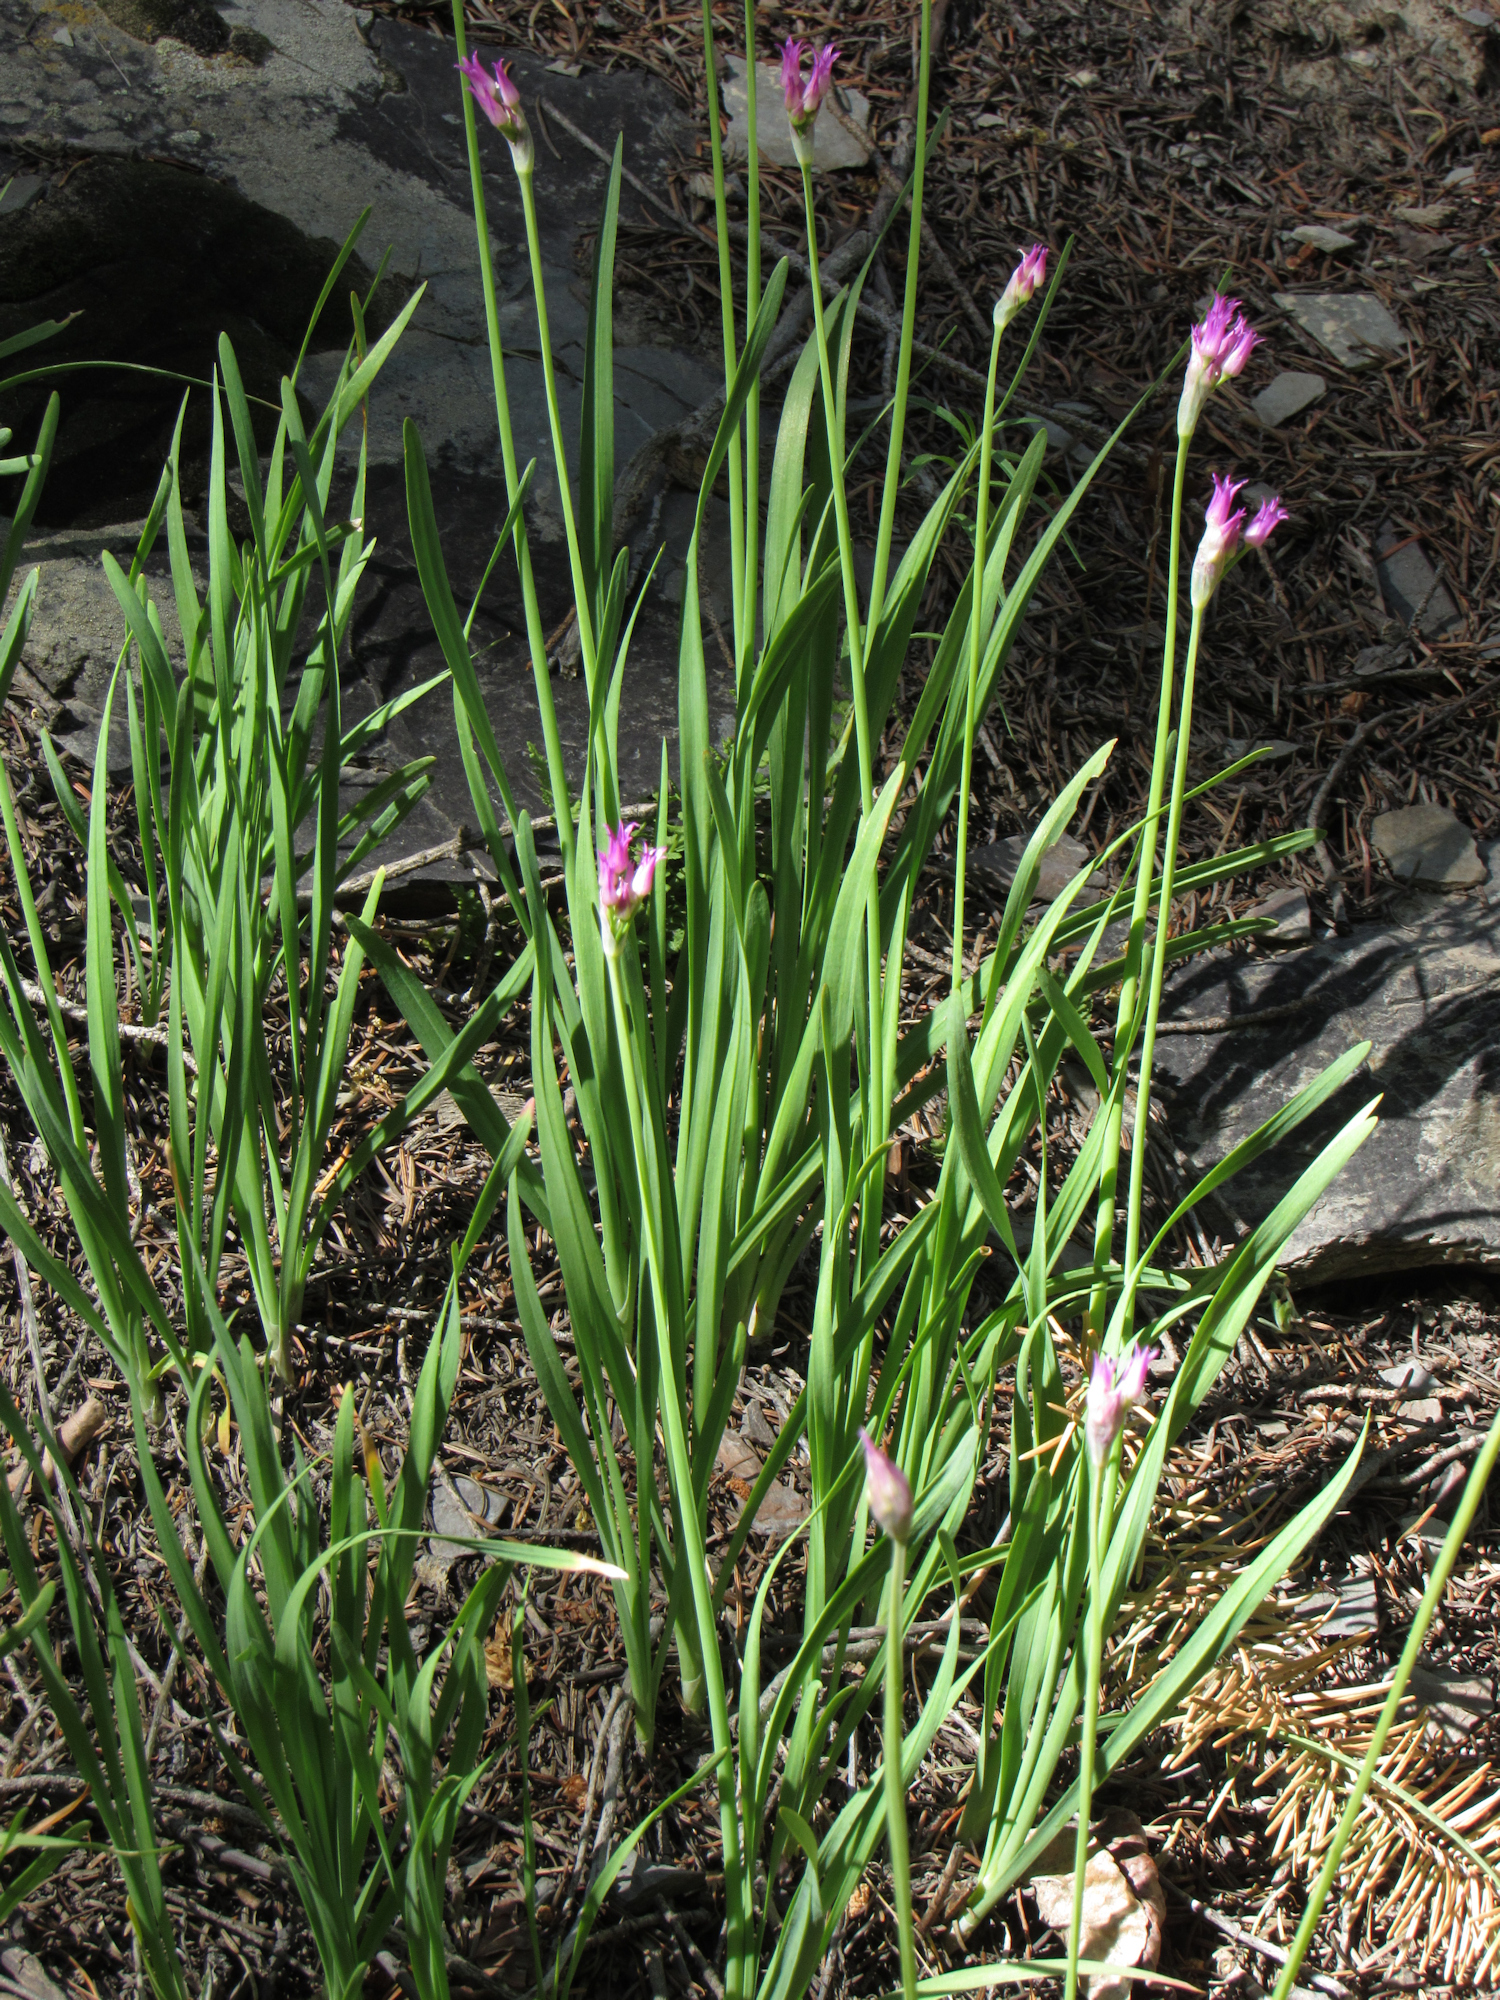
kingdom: Plantae
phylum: Tracheophyta
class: Liliopsida
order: Asparagales
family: Amaryllidaceae
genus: Allium
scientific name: Allium brevistylum
